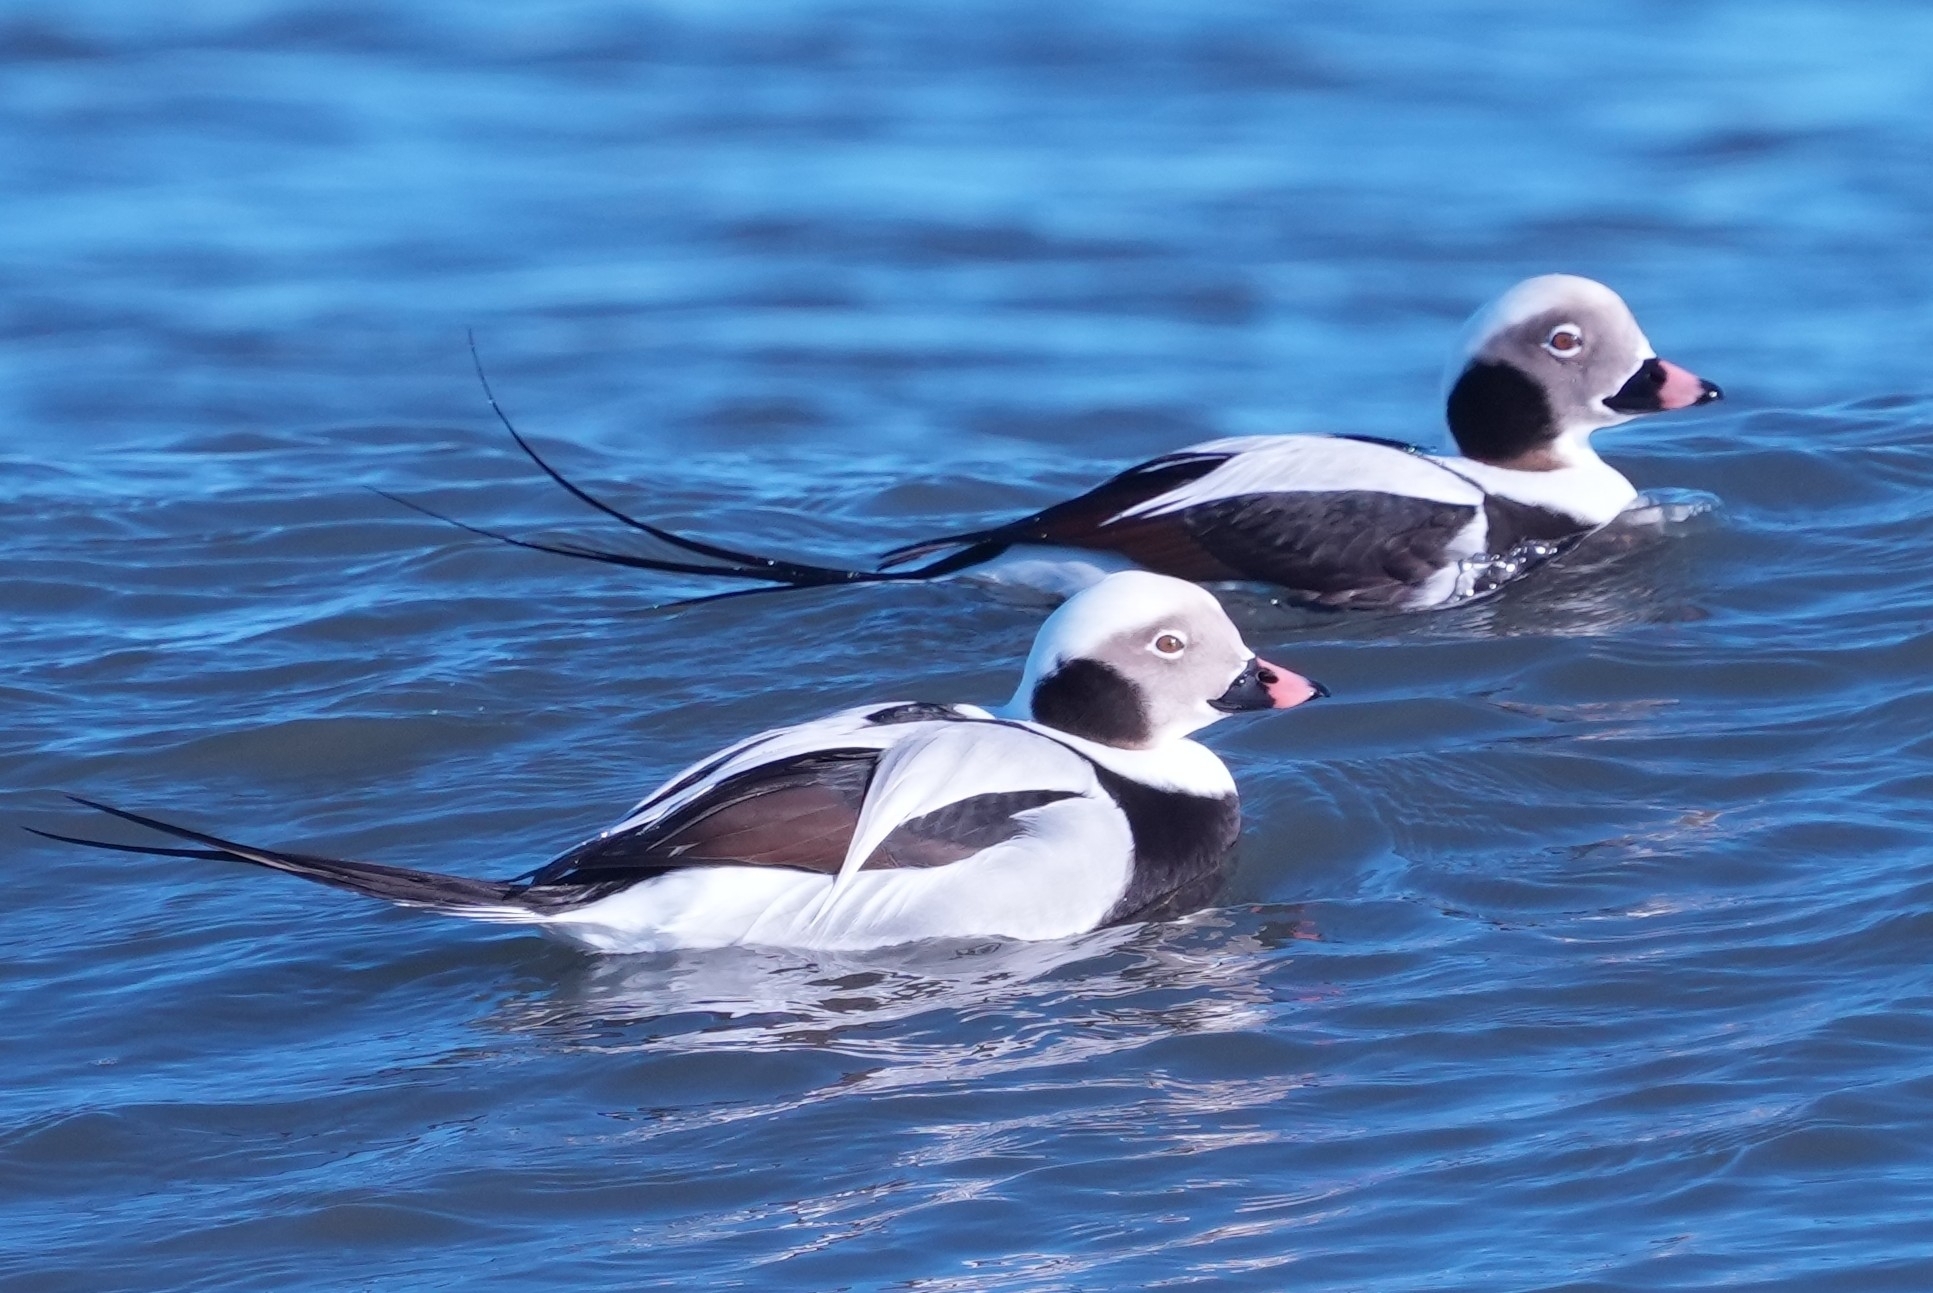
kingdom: Animalia
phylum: Chordata
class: Aves
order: Anseriformes
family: Anatidae
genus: Clangula
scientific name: Clangula hyemalis
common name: Long-tailed duck
